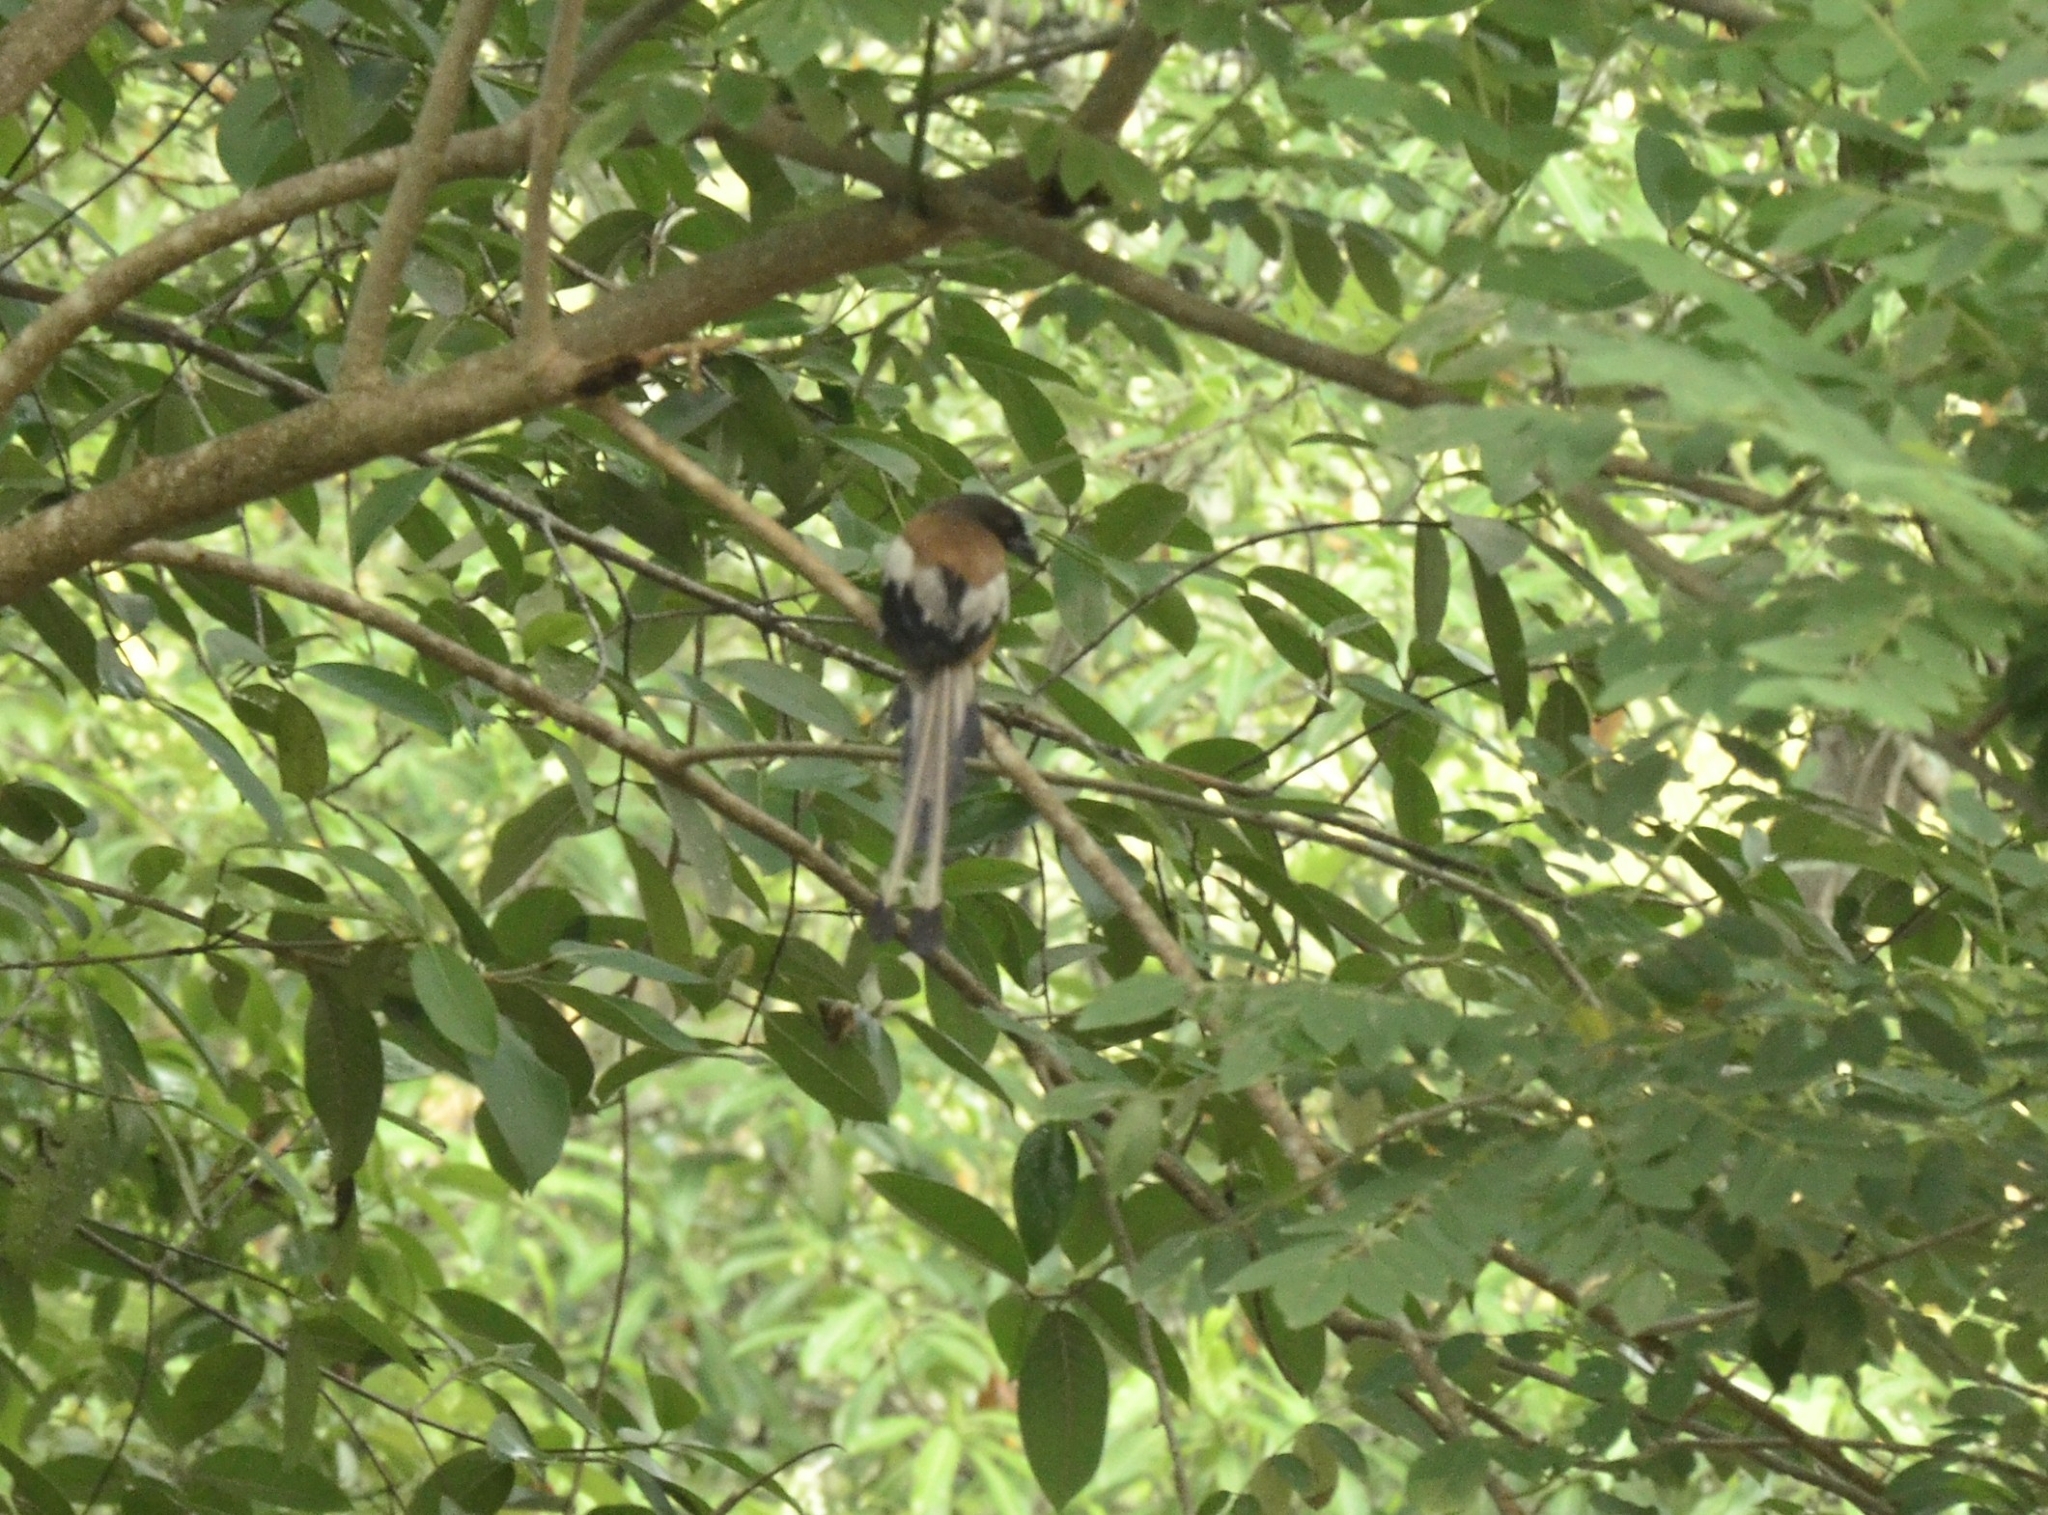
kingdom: Animalia
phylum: Chordata
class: Aves
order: Passeriformes
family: Corvidae
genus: Dendrocitta
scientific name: Dendrocitta vagabunda
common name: Rufous treepie
